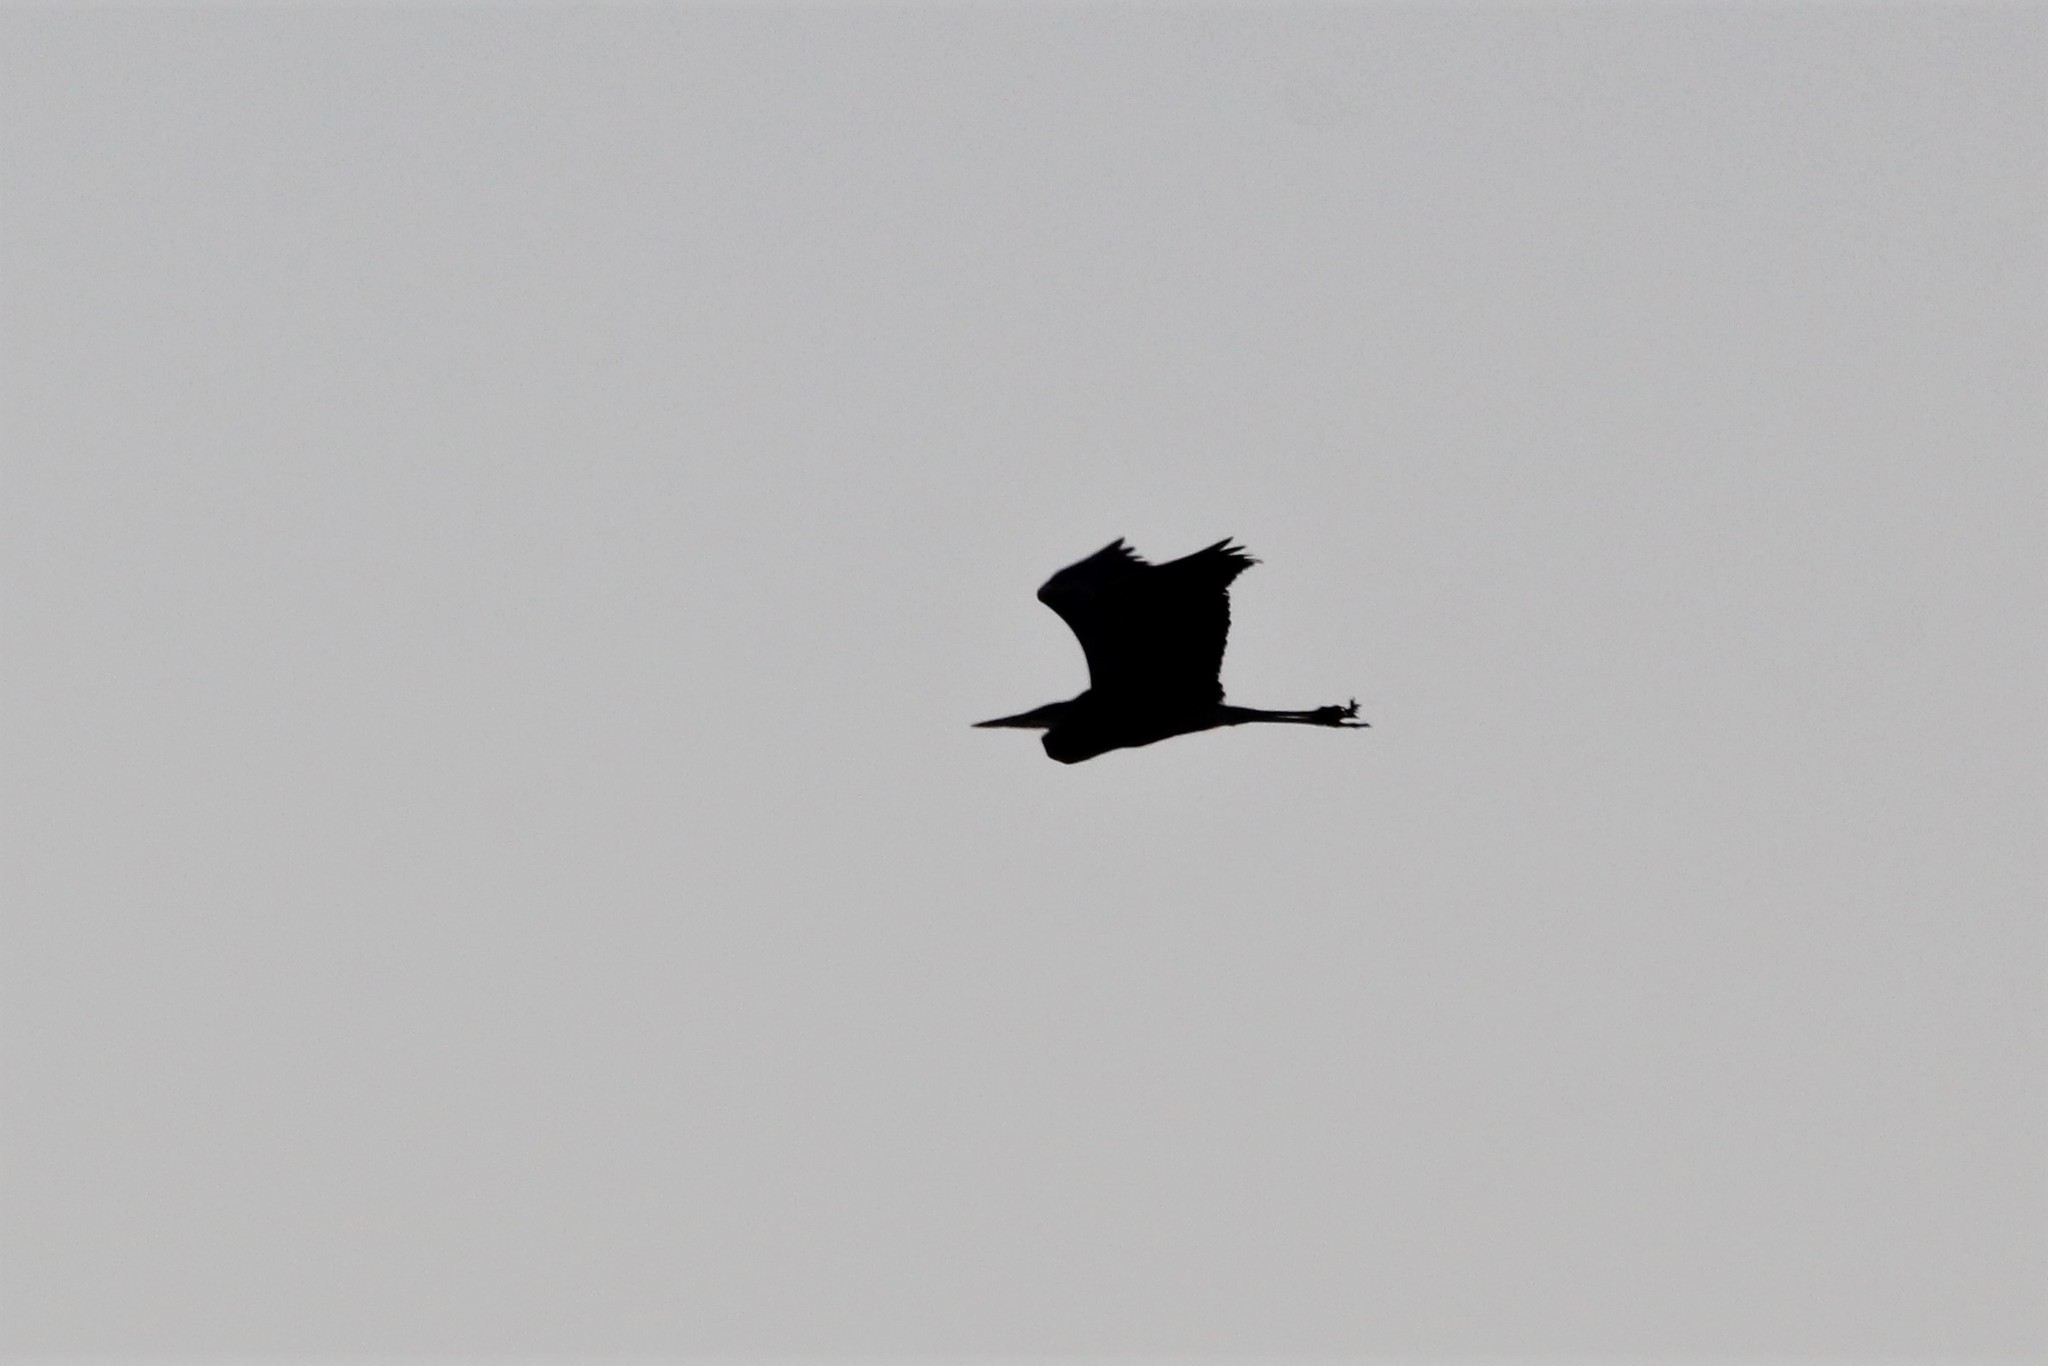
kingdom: Animalia
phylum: Chordata
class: Aves
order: Pelecaniformes
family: Ardeidae
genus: Ardea
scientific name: Ardea herodias
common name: Great blue heron
